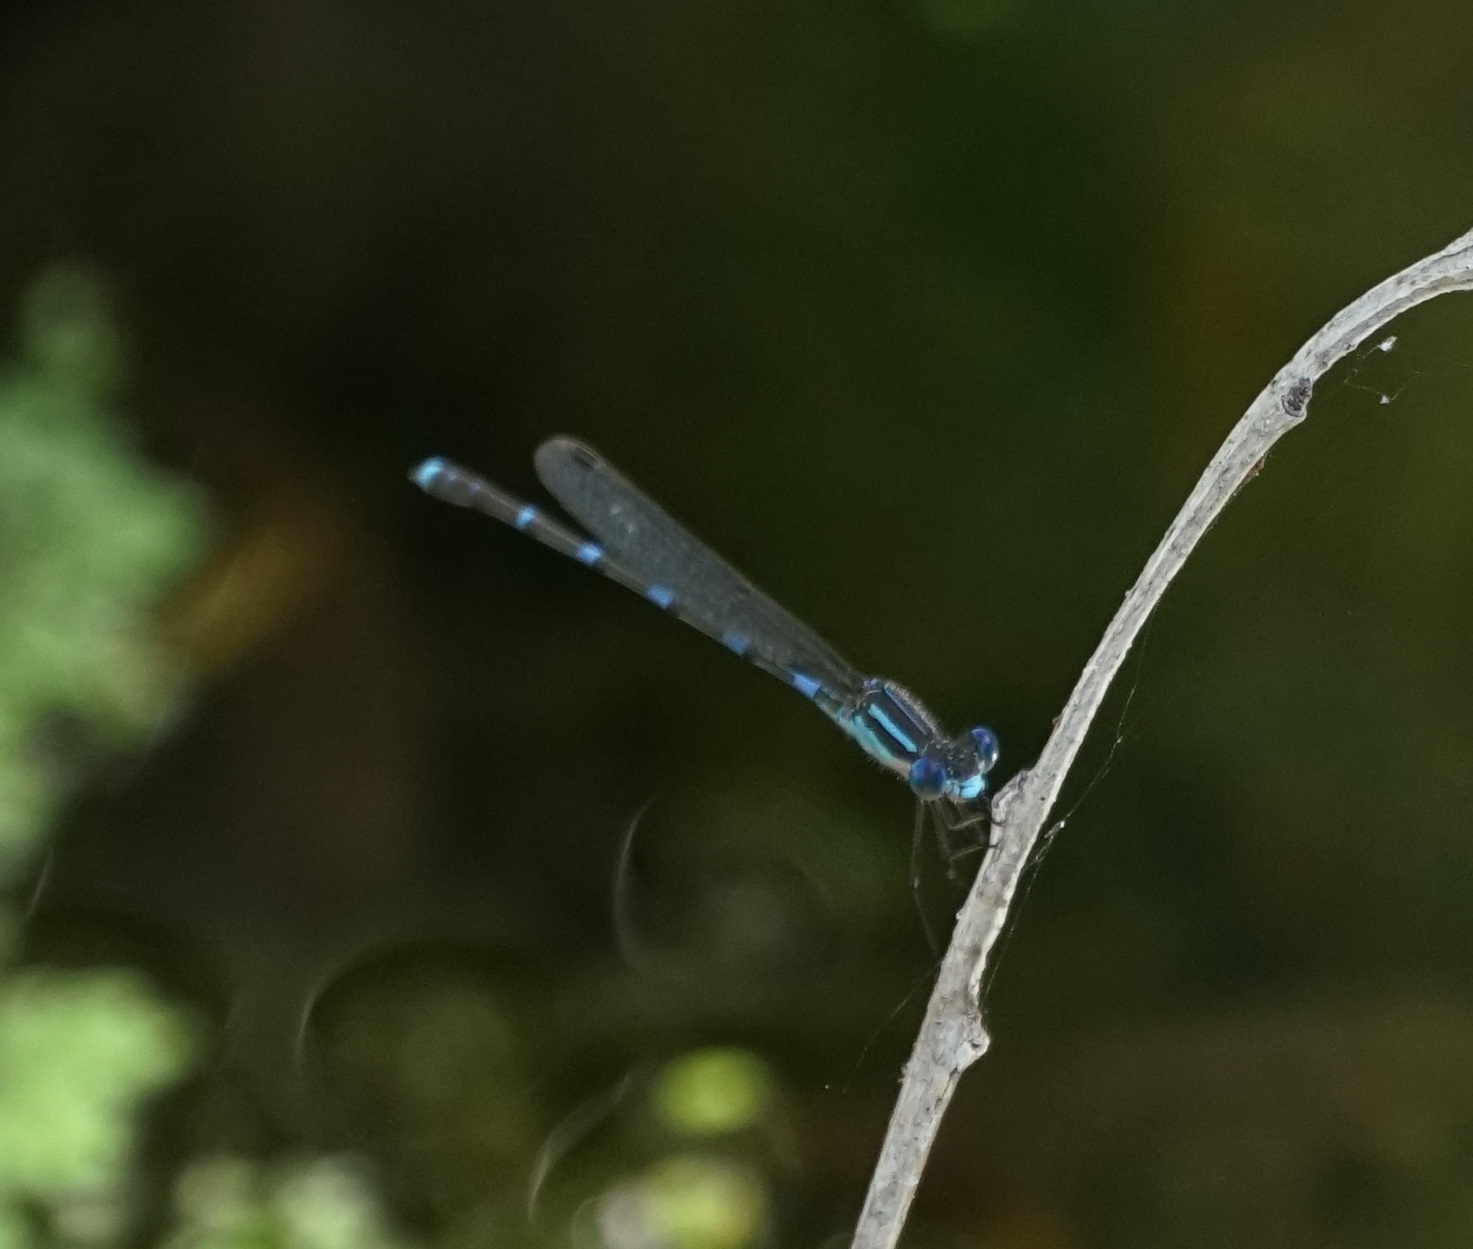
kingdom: Animalia
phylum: Arthropoda
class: Insecta
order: Odonata
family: Lestidae
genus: Austrolestes
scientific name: Austrolestes leda
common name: Wandering ringtail
